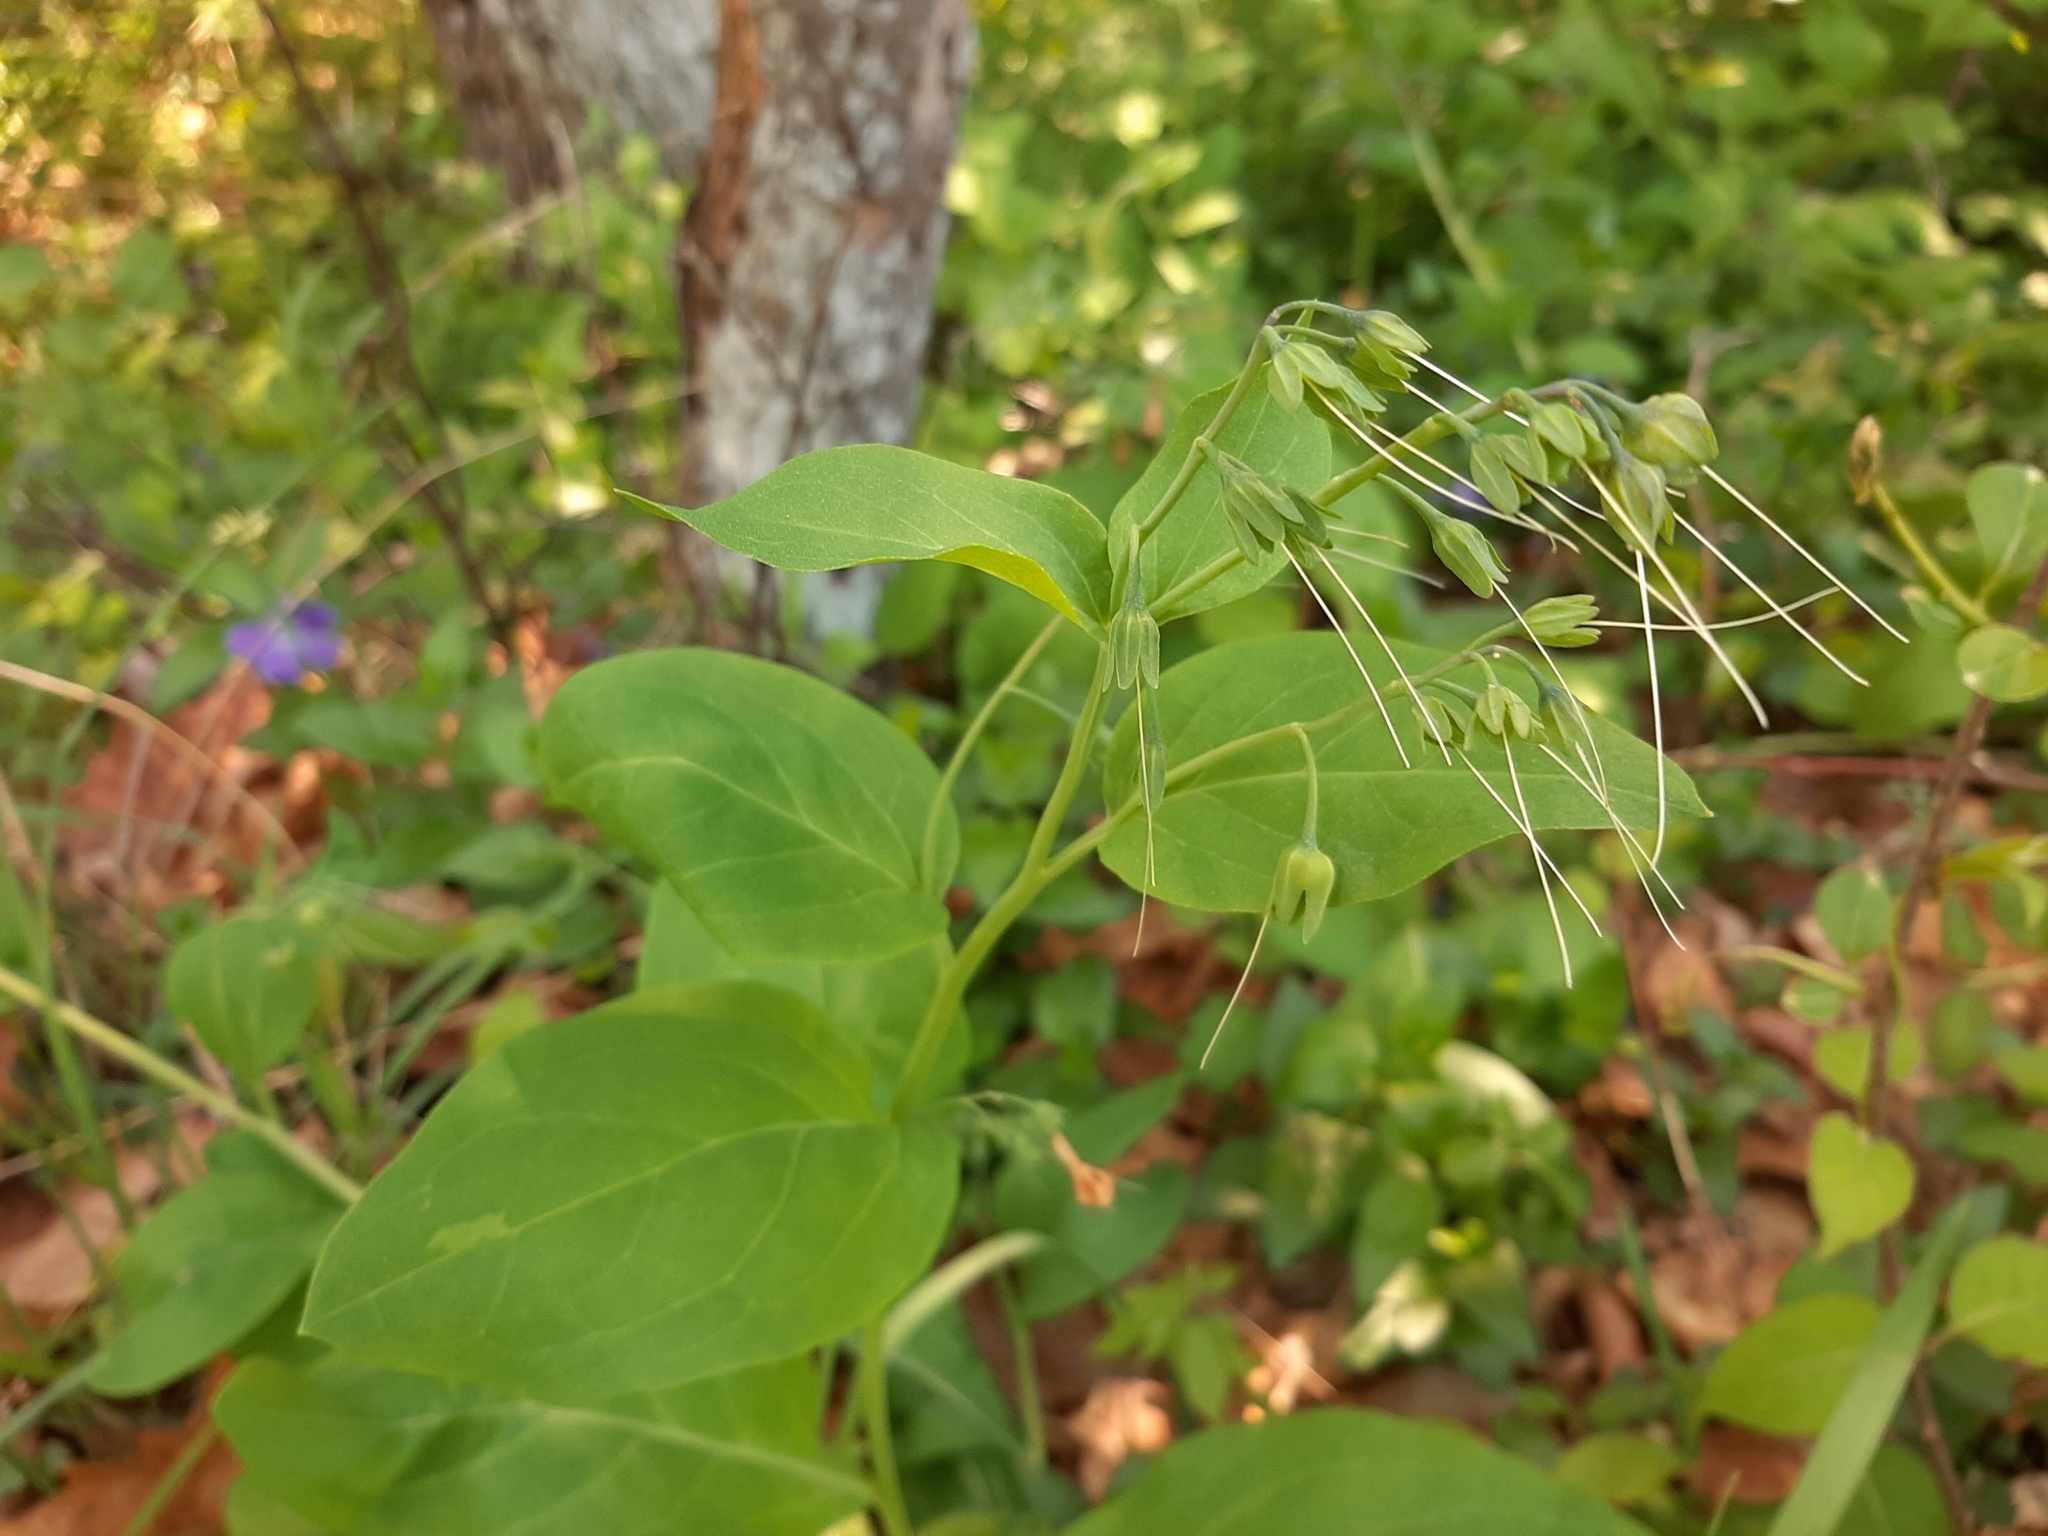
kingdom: Plantae
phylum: Tracheophyta
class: Magnoliopsida
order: Boraginales
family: Boraginaceae
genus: Mertensia
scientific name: Mertensia virginica
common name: Virginia bluebells
